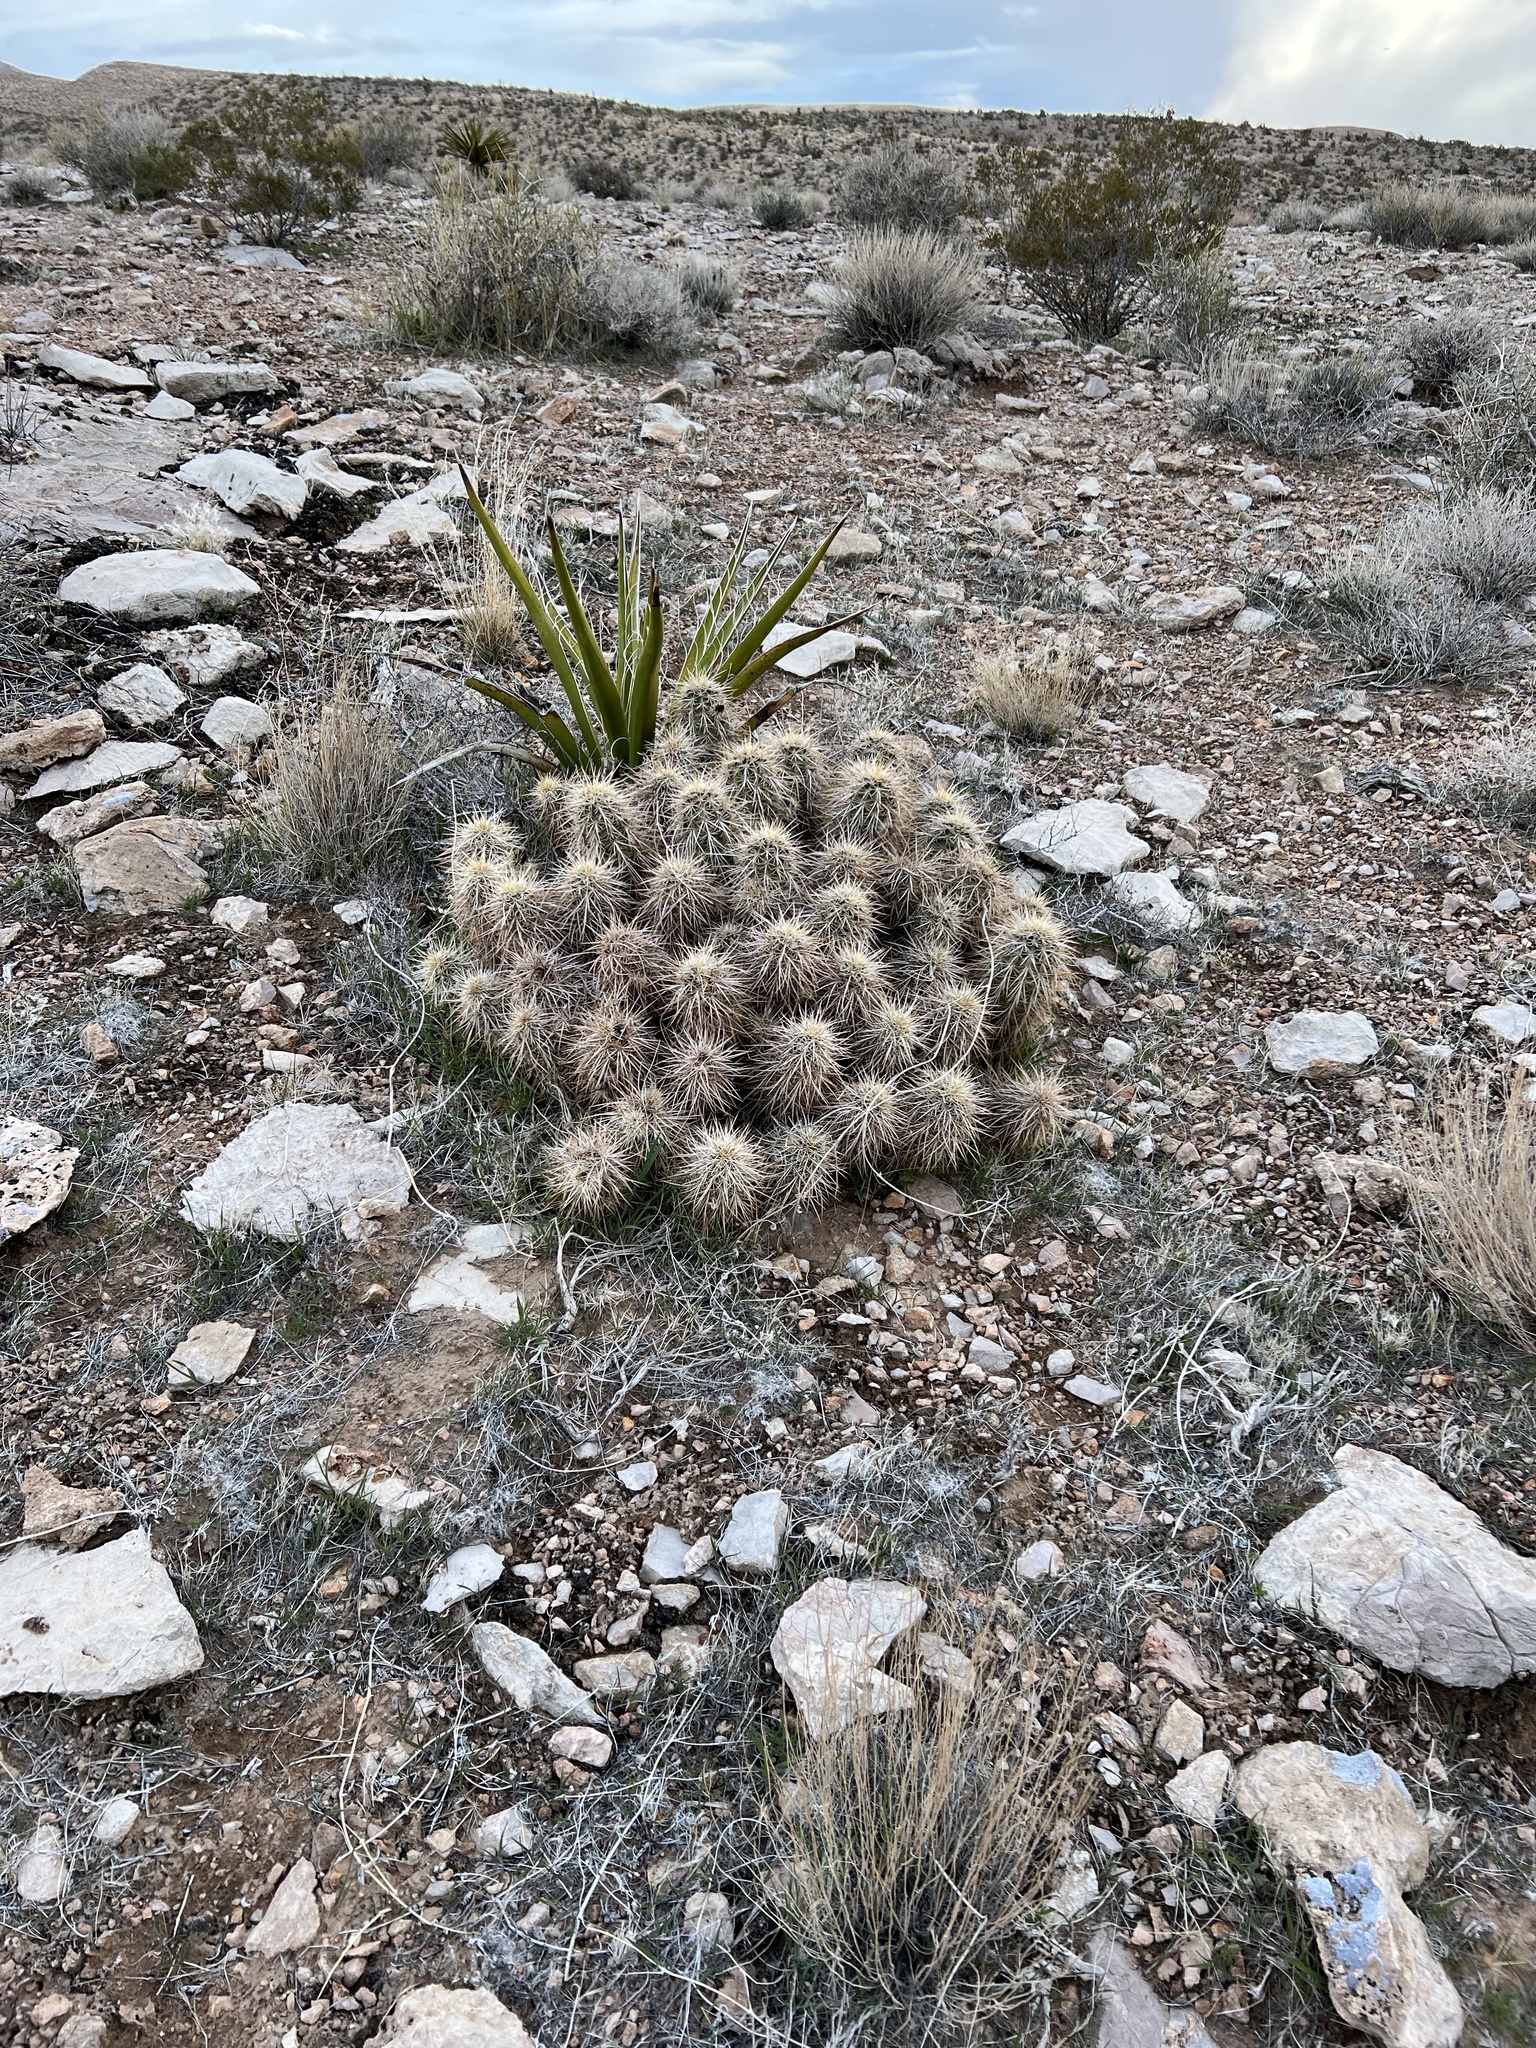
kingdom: Plantae
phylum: Tracheophyta
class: Magnoliopsida
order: Caryophyllales
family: Cactaceae
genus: Echinocereus
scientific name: Echinocereus engelmannii
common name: Engelmann's hedgehog cactus
